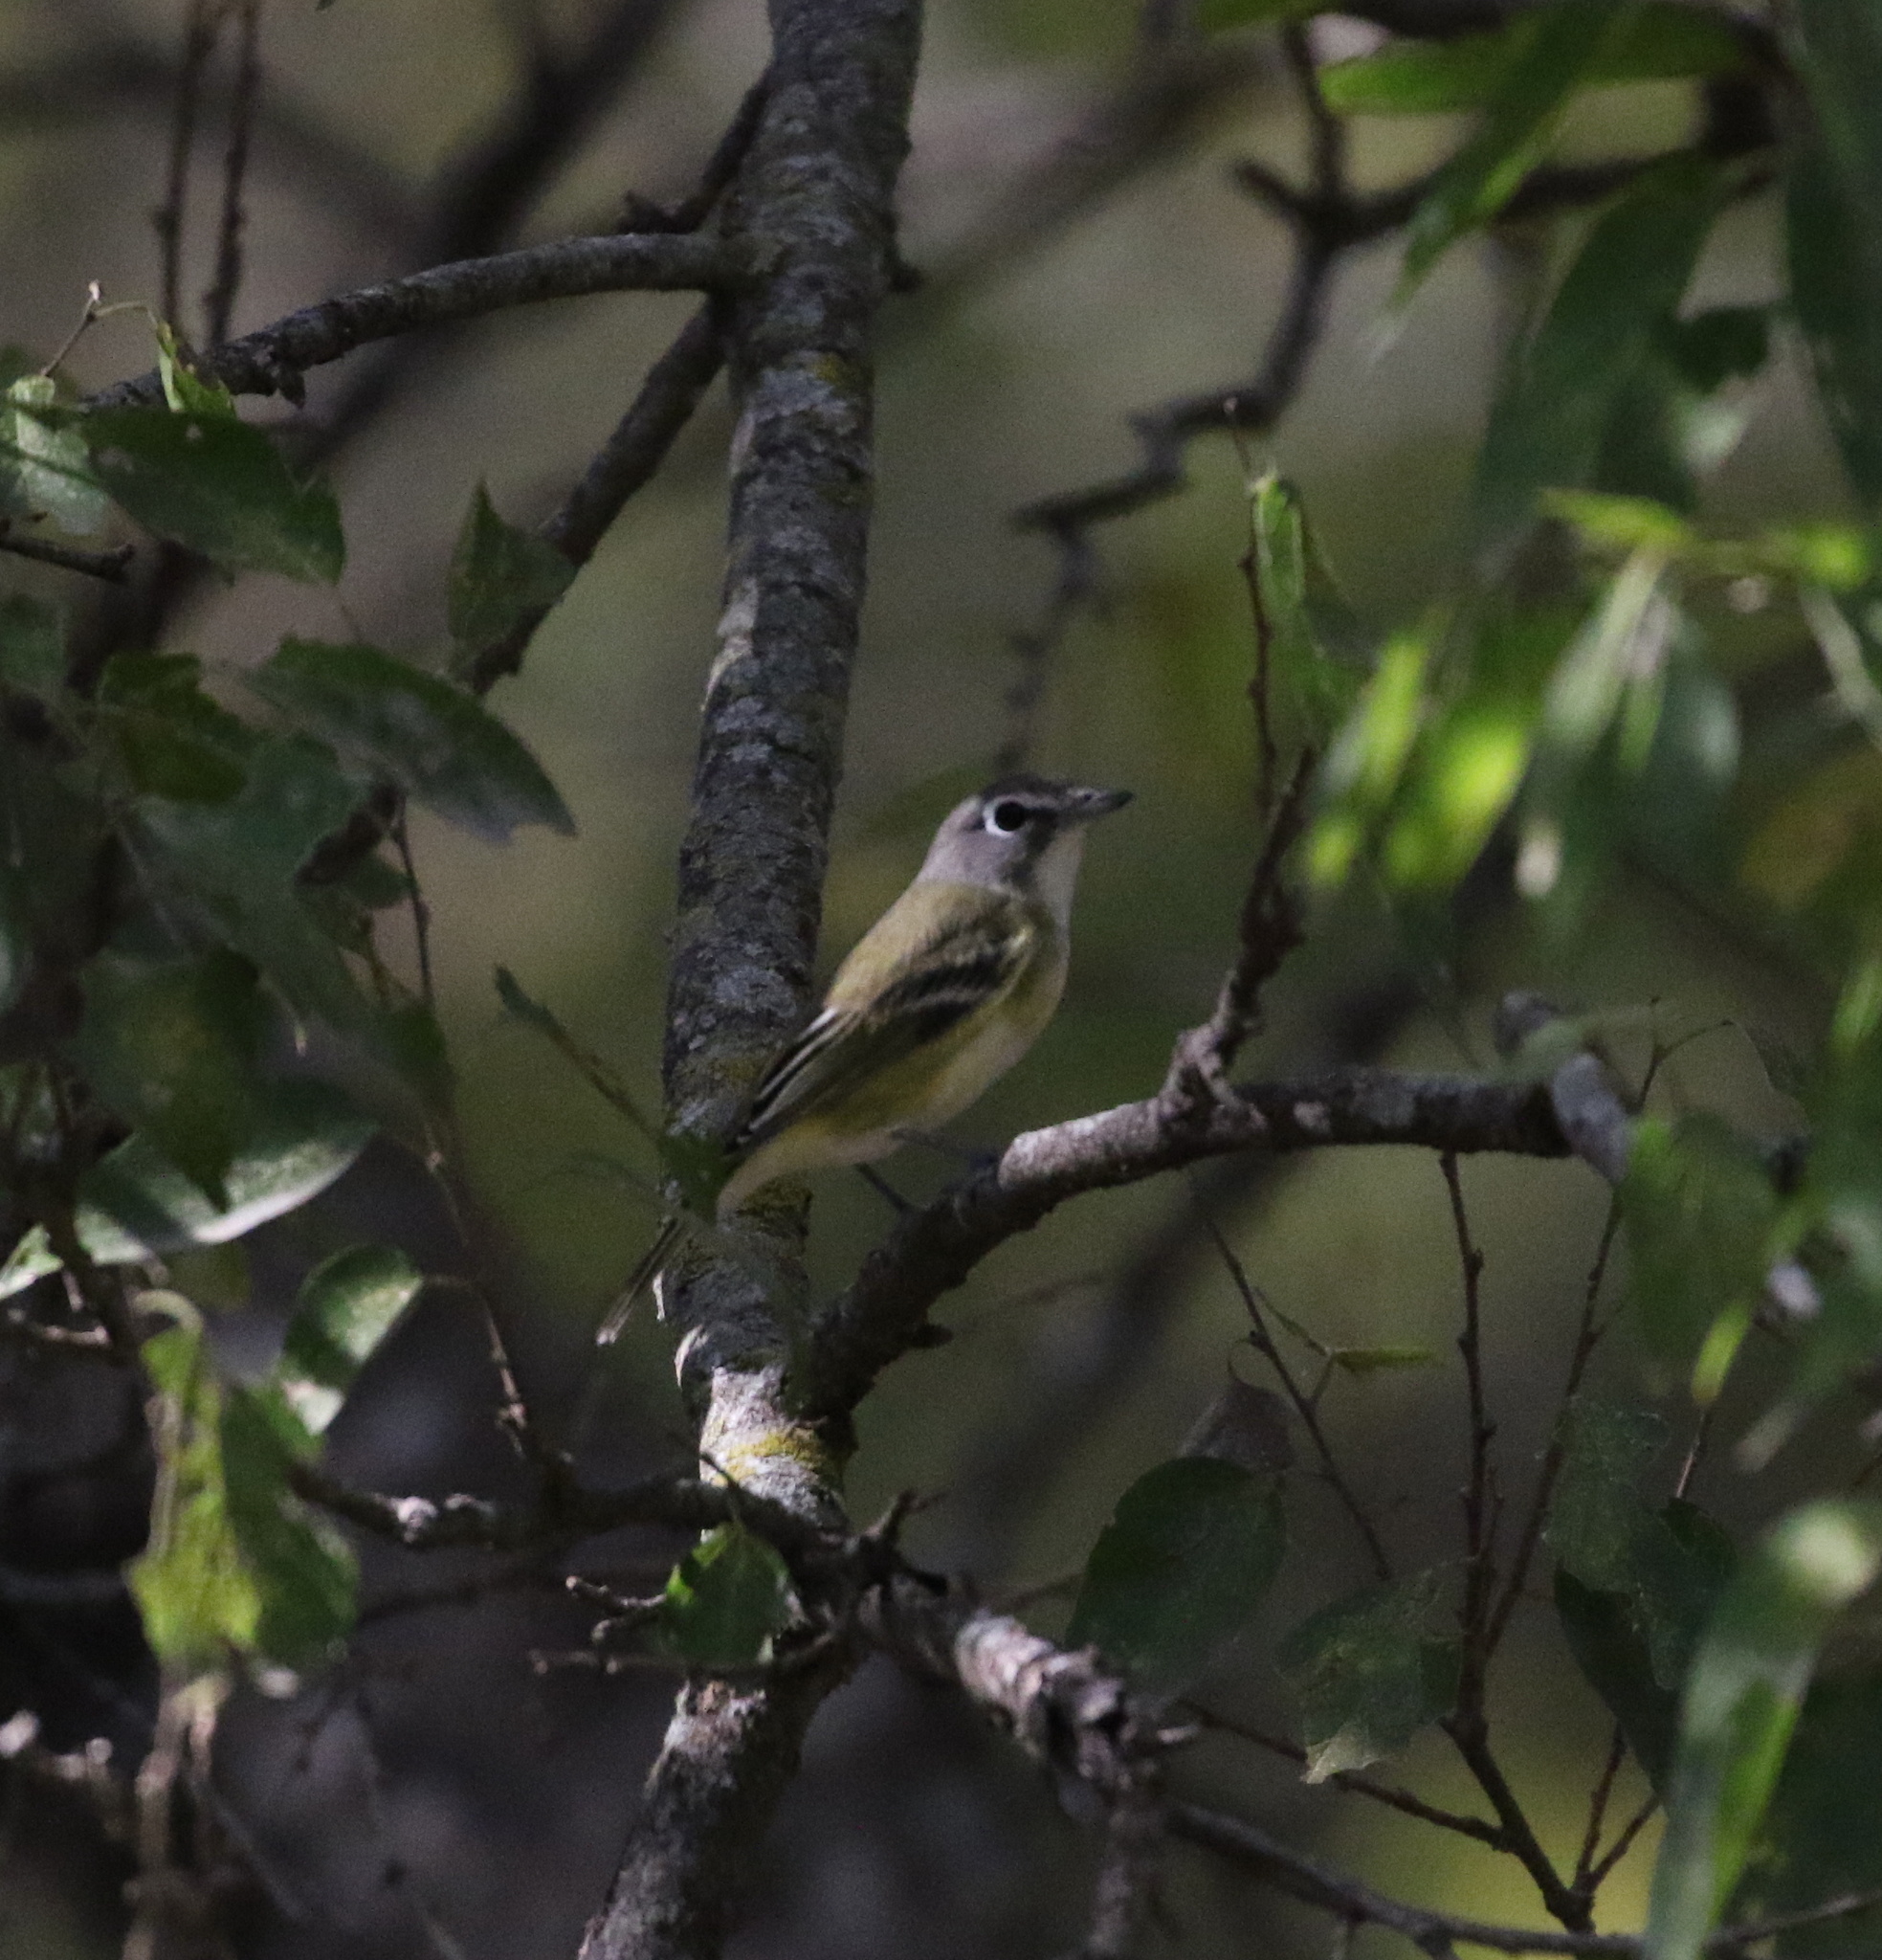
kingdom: Animalia
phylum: Chordata
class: Aves
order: Passeriformes
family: Vireonidae
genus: Vireo
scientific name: Vireo solitarius
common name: Blue-headed vireo
